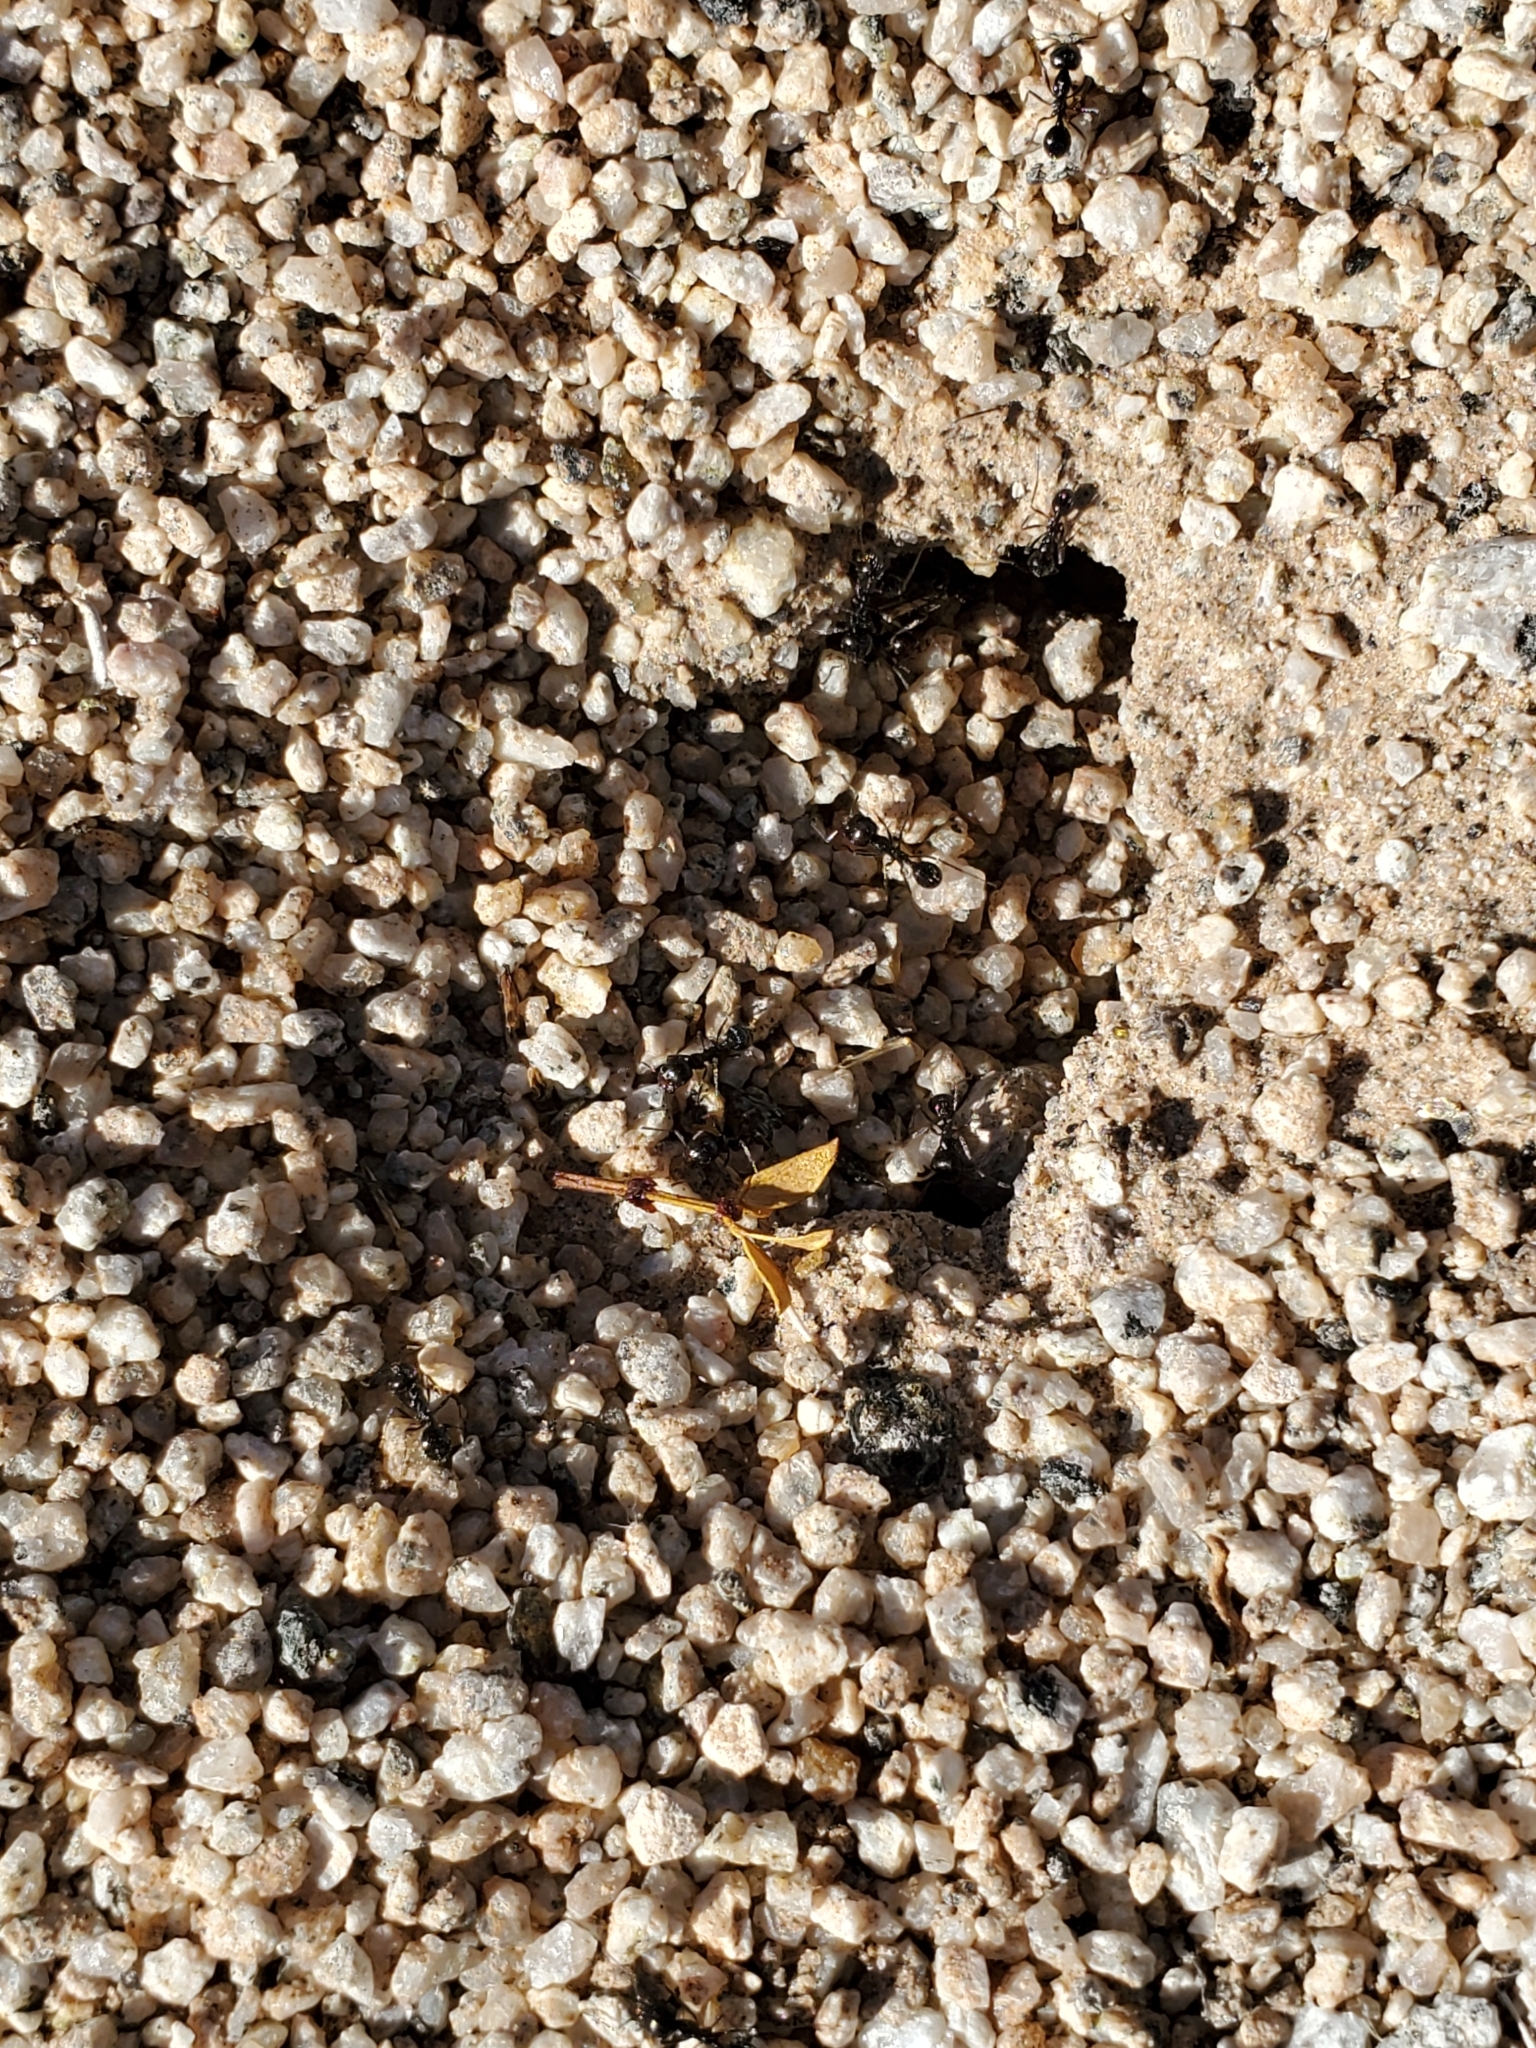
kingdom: Animalia
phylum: Arthropoda
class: Insecta
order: Hymenoptera
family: Formicidae
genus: Messor
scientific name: Messor pergandei
